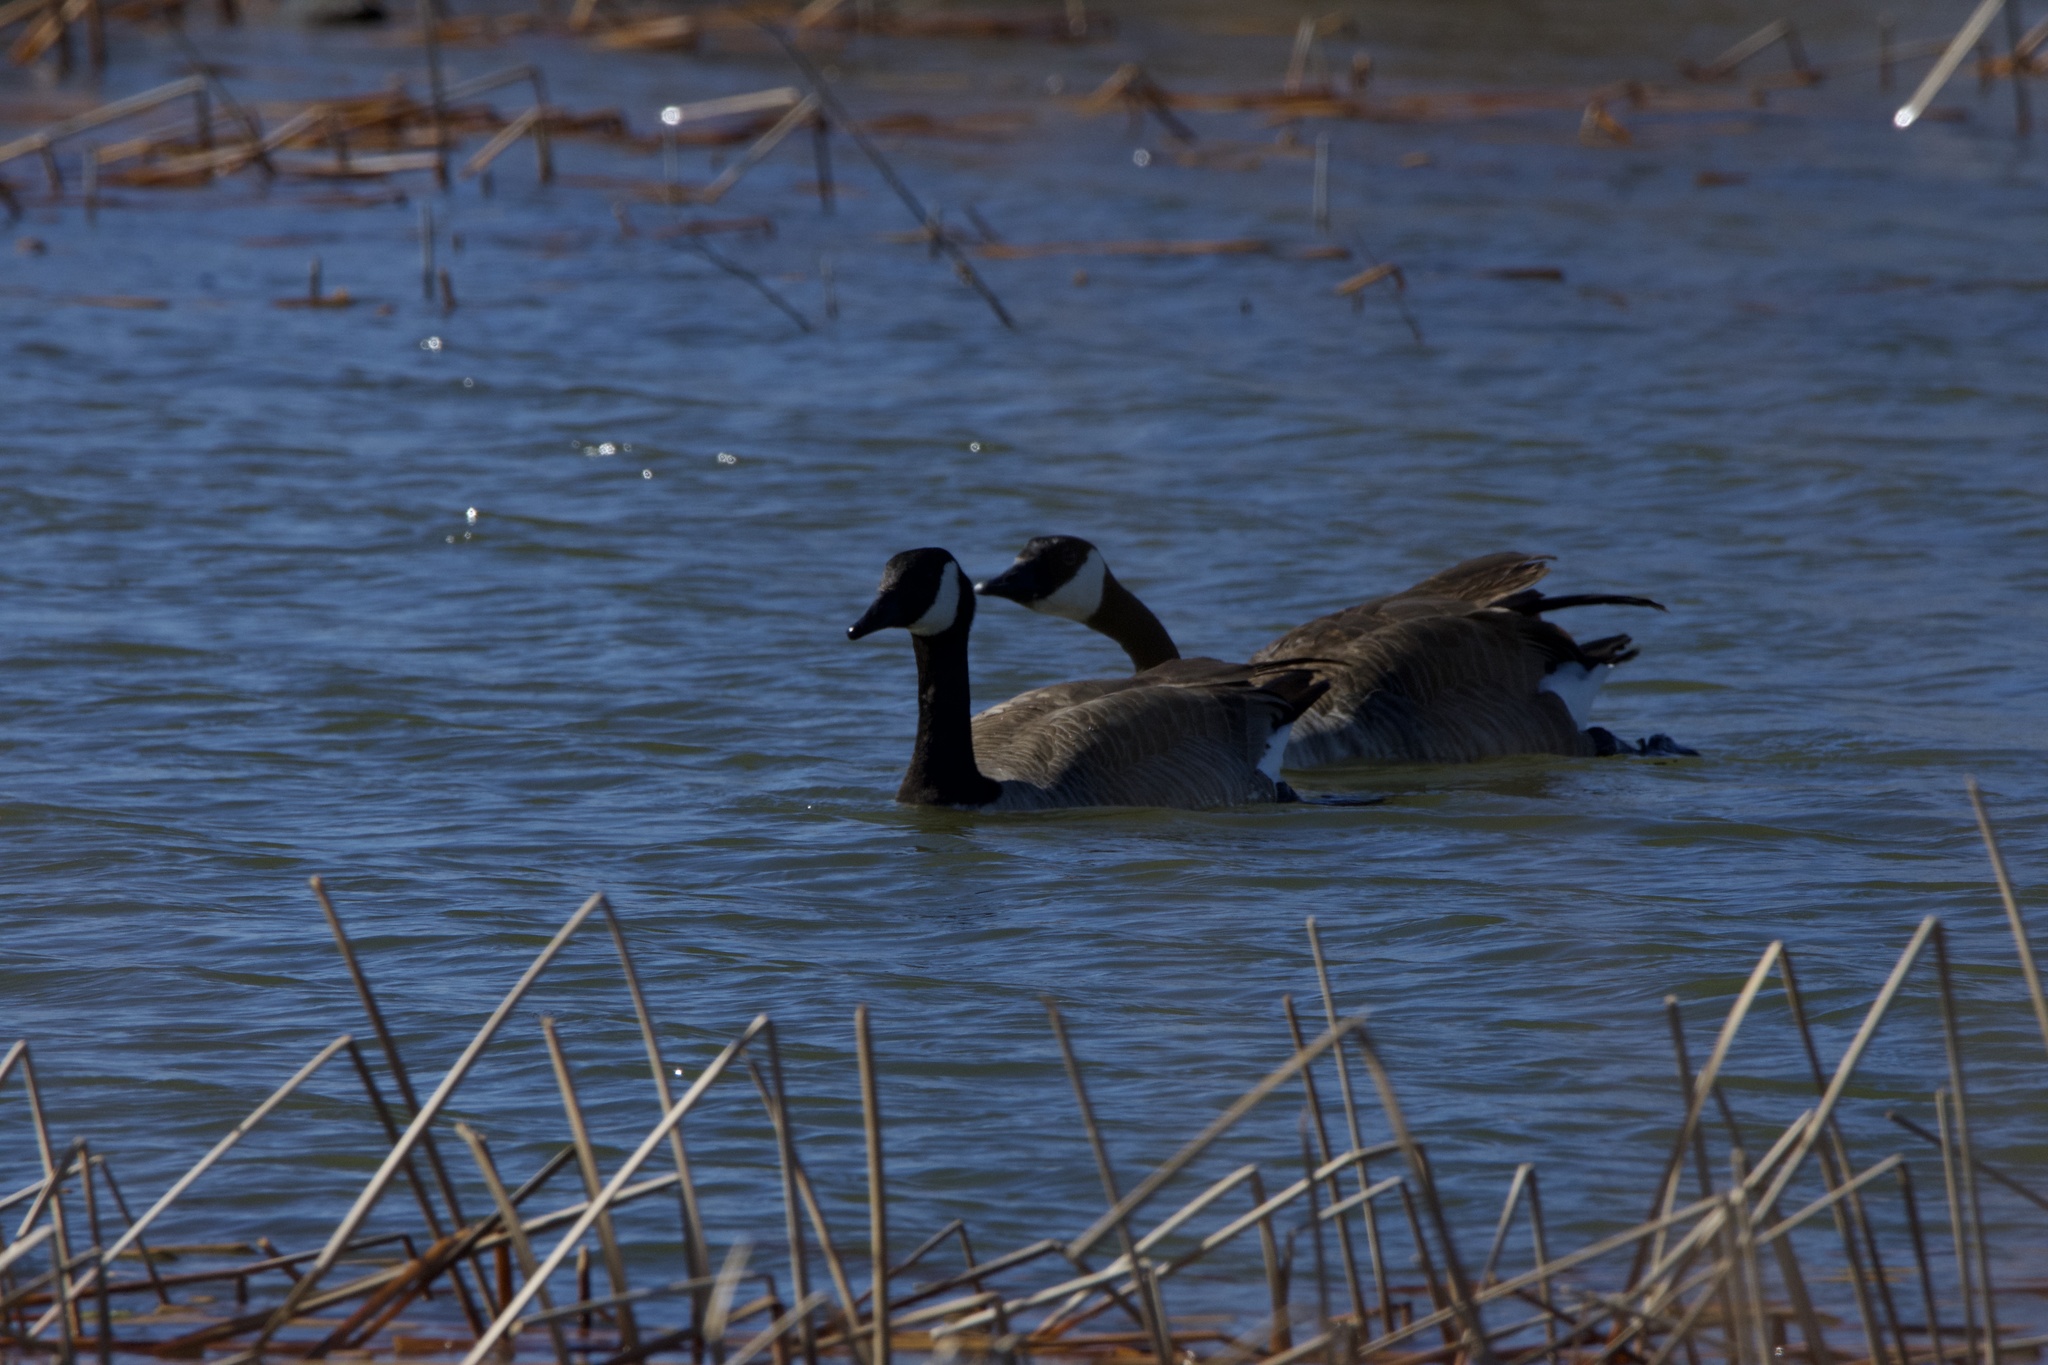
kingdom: Animalia
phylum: Chordata
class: Aves
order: Anseriformes
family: Anatidae
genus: Branta
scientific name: Branta canadensis
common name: Canada goose
